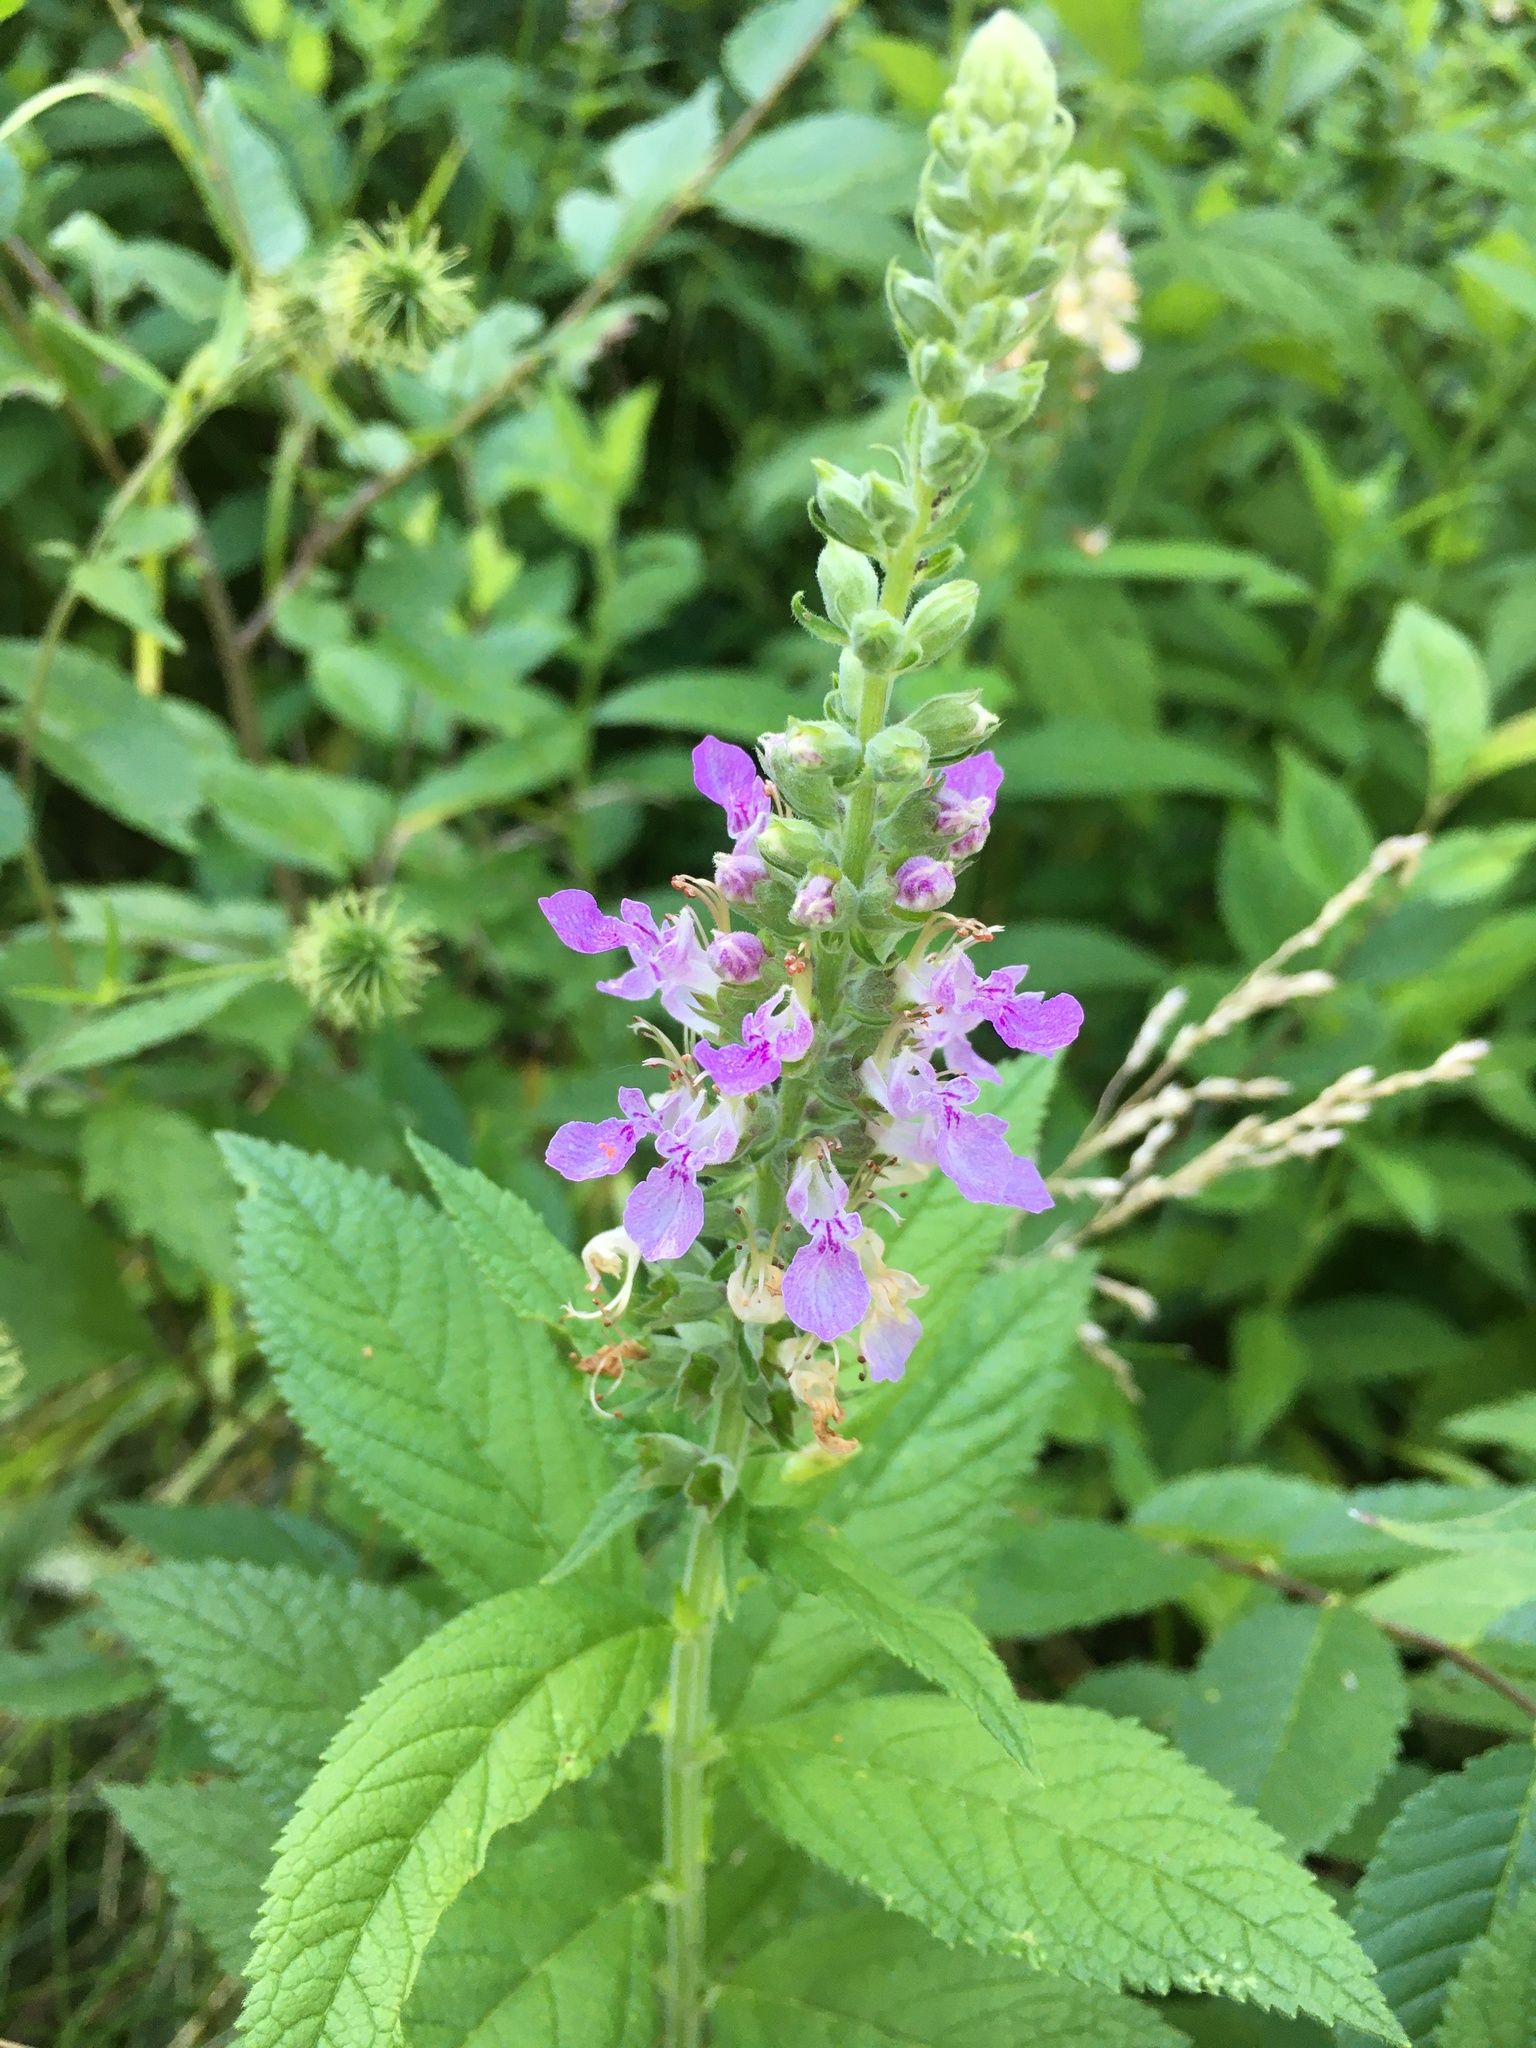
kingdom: Plantae
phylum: Tracheophyta
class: Magnoliopsida
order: Lamiales
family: Lamiaceae
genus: Teucrium
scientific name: Teucrium canadense
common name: American germander
